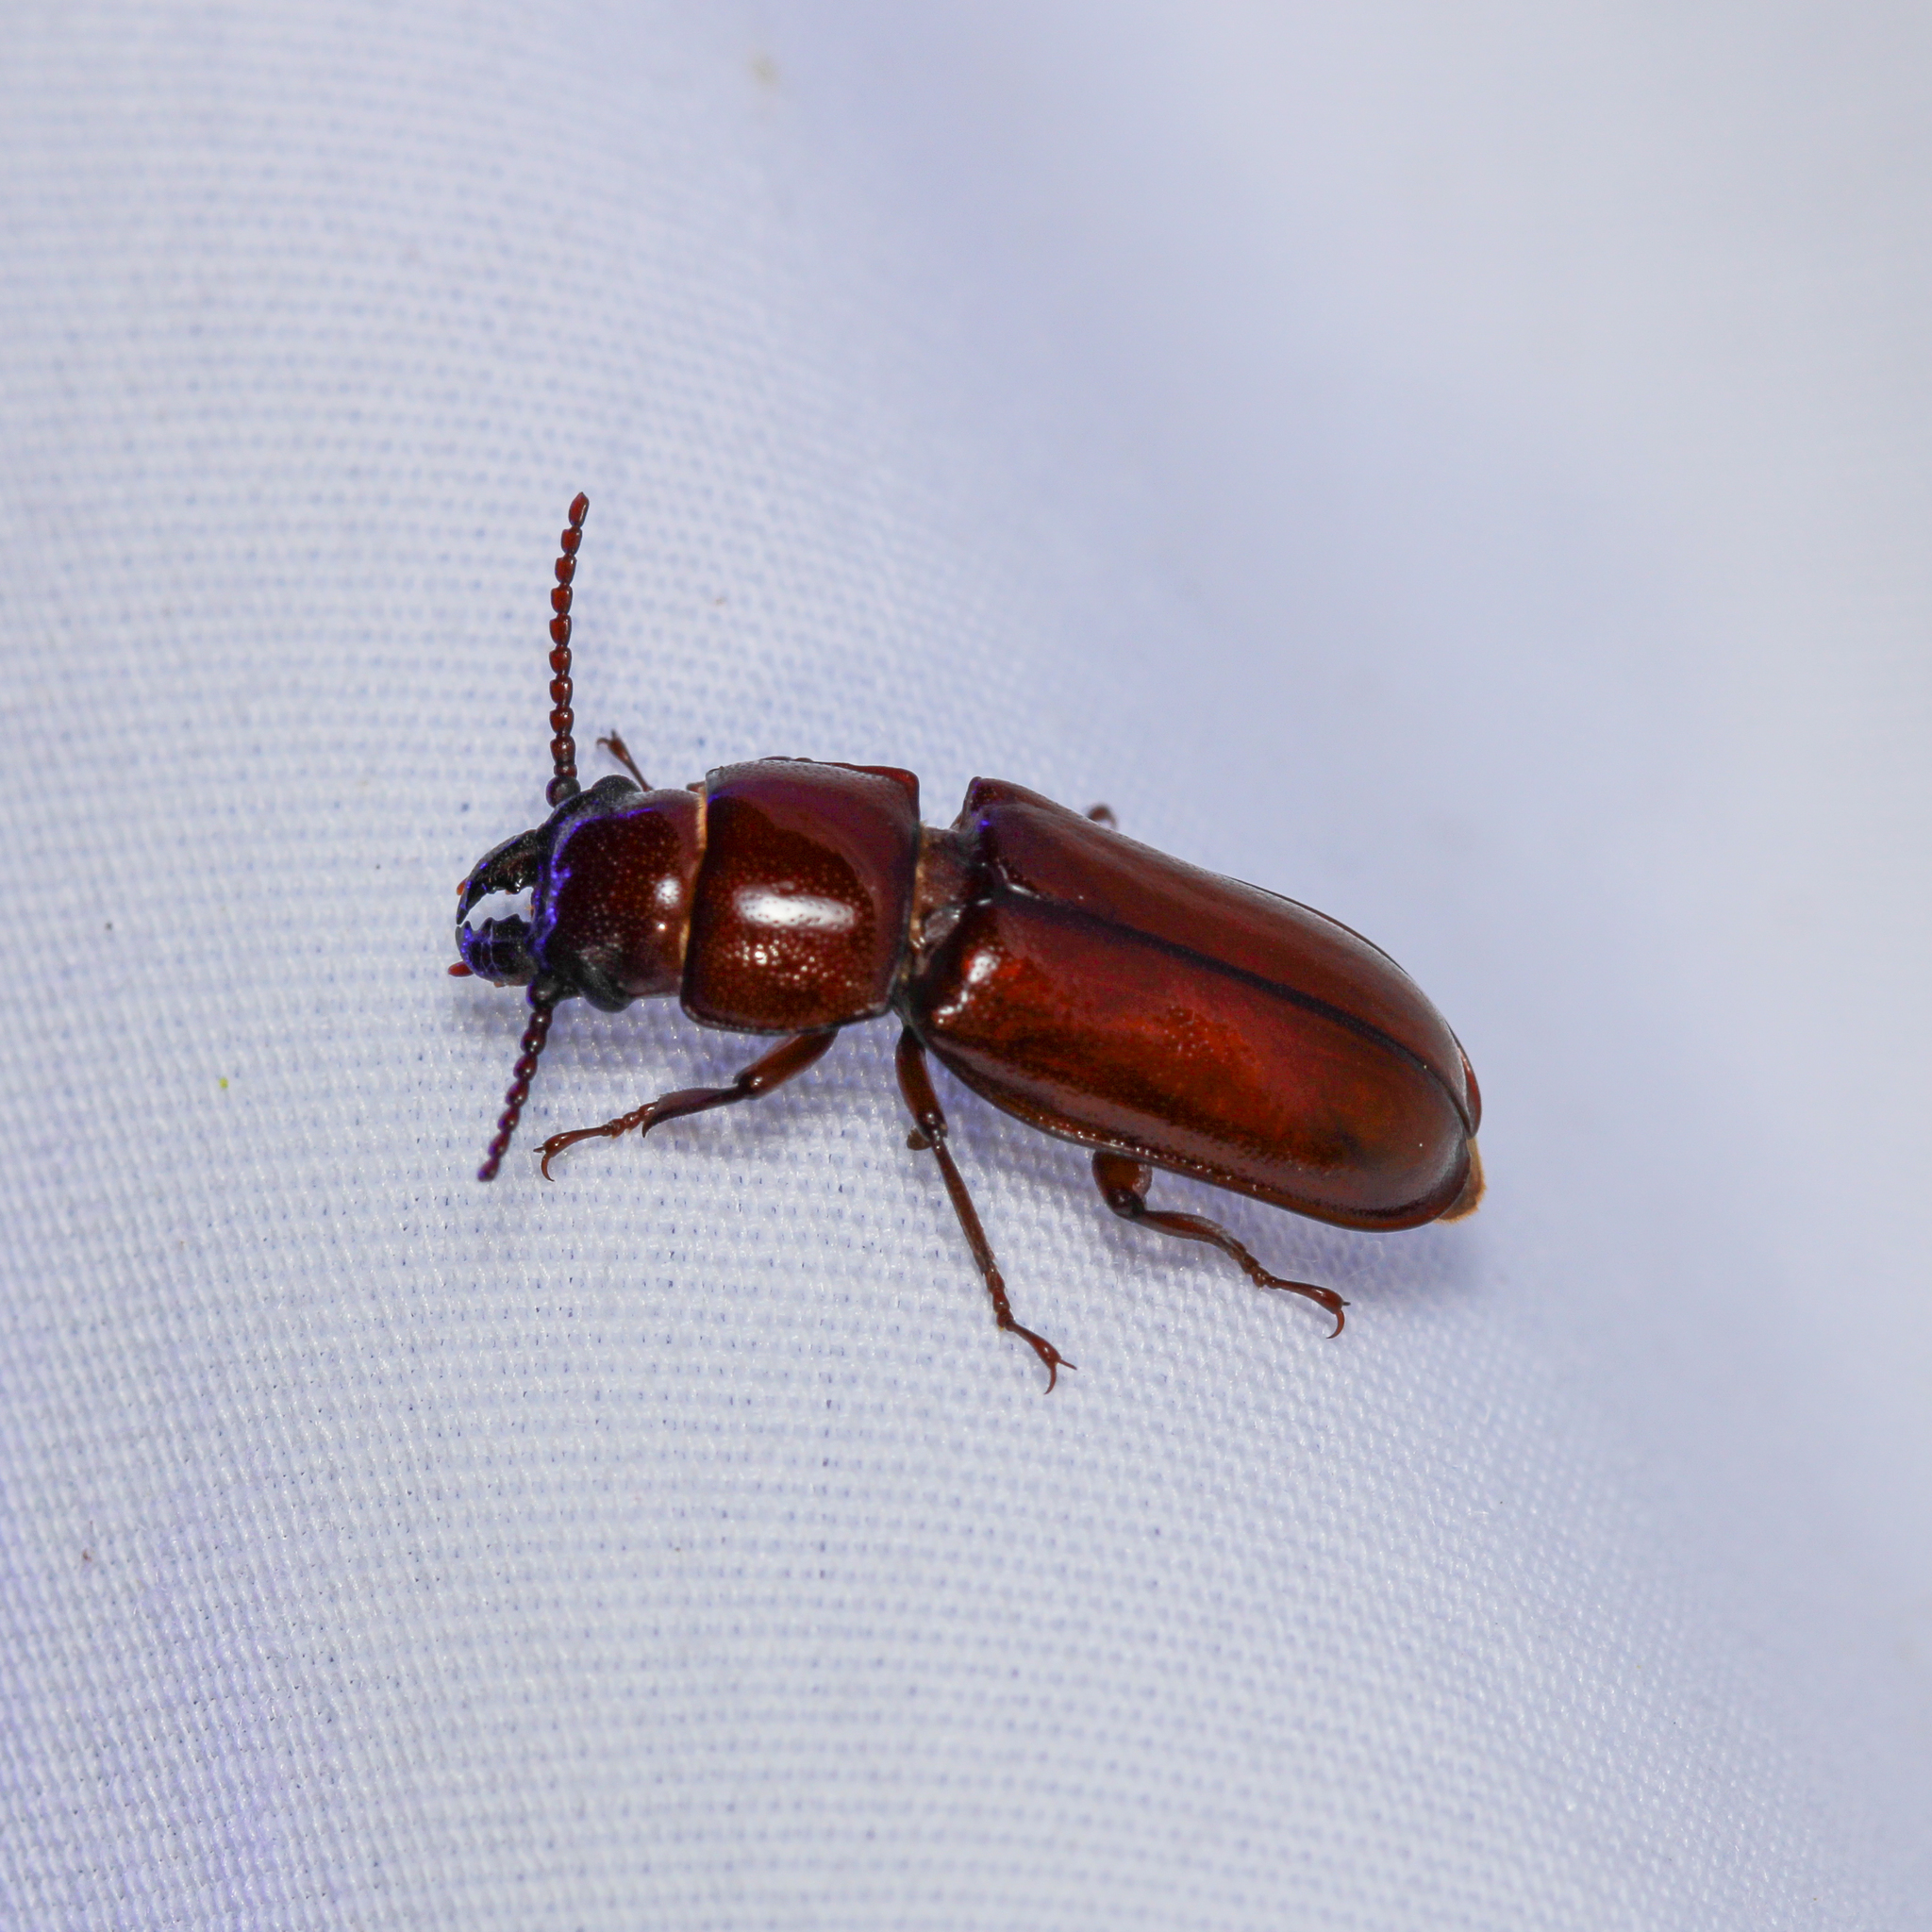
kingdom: Animalia
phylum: Arthropoda
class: Insecta
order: Coleoptera
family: Cerambycidae
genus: Neandra
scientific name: Neandra brunnea
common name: Pole borer
